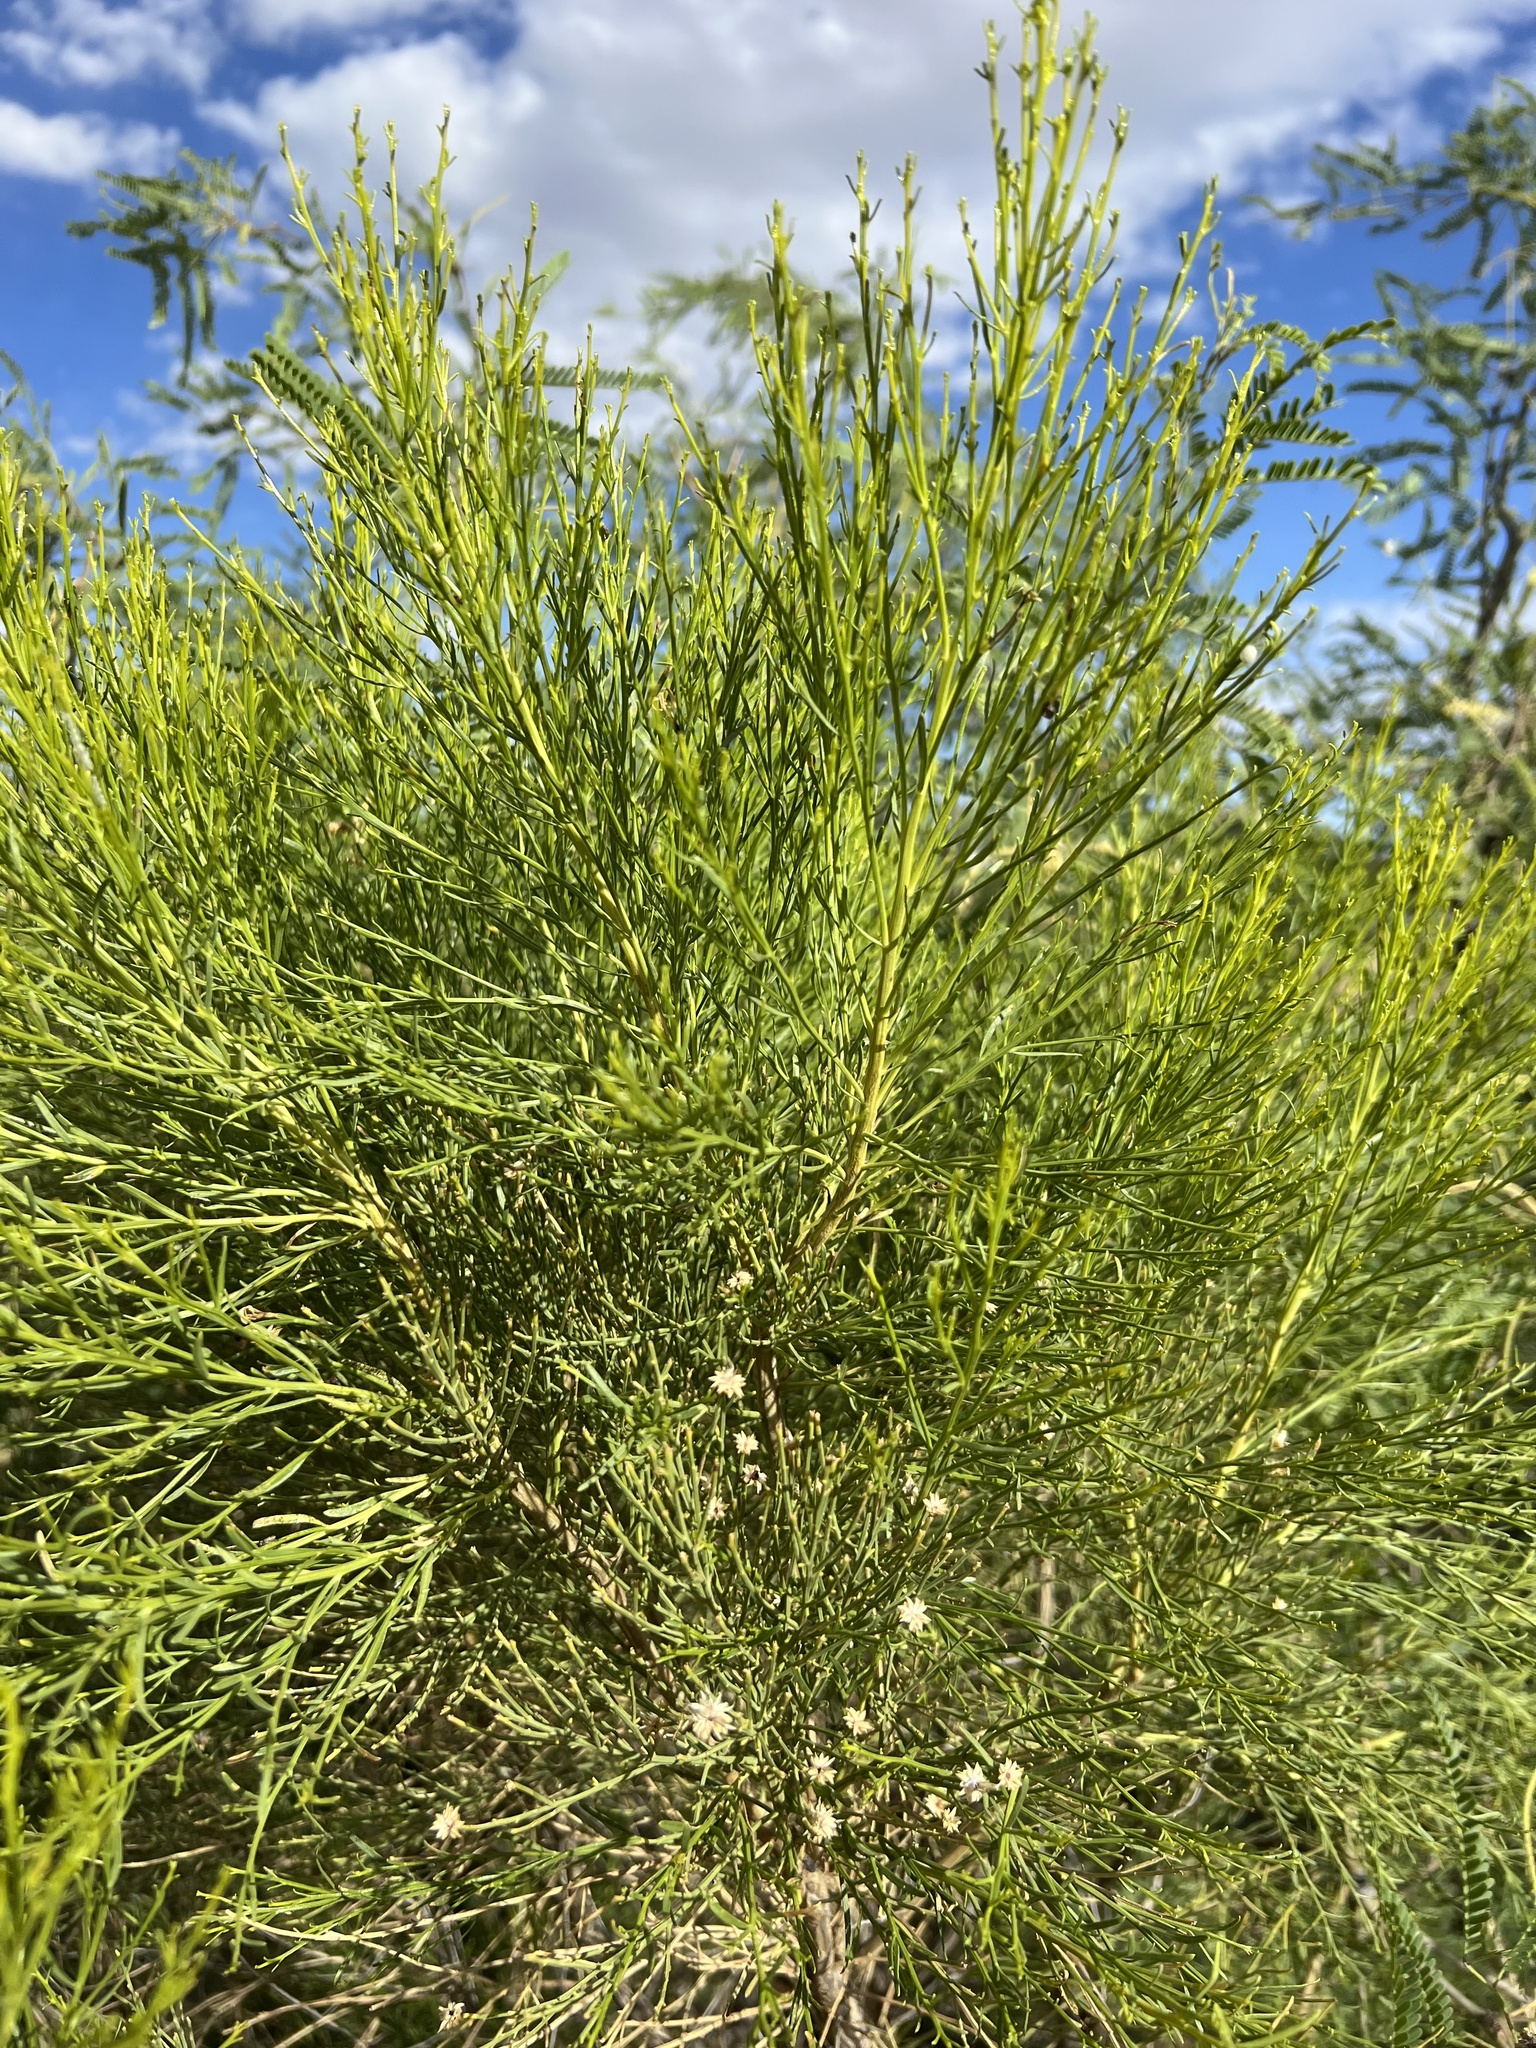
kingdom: Plantae
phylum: Tracheophyta
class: Magnoliopsida
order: Asterales
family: Asteraceae
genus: Baccharis
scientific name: Baccharis sarothroides
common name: Desert-broom
